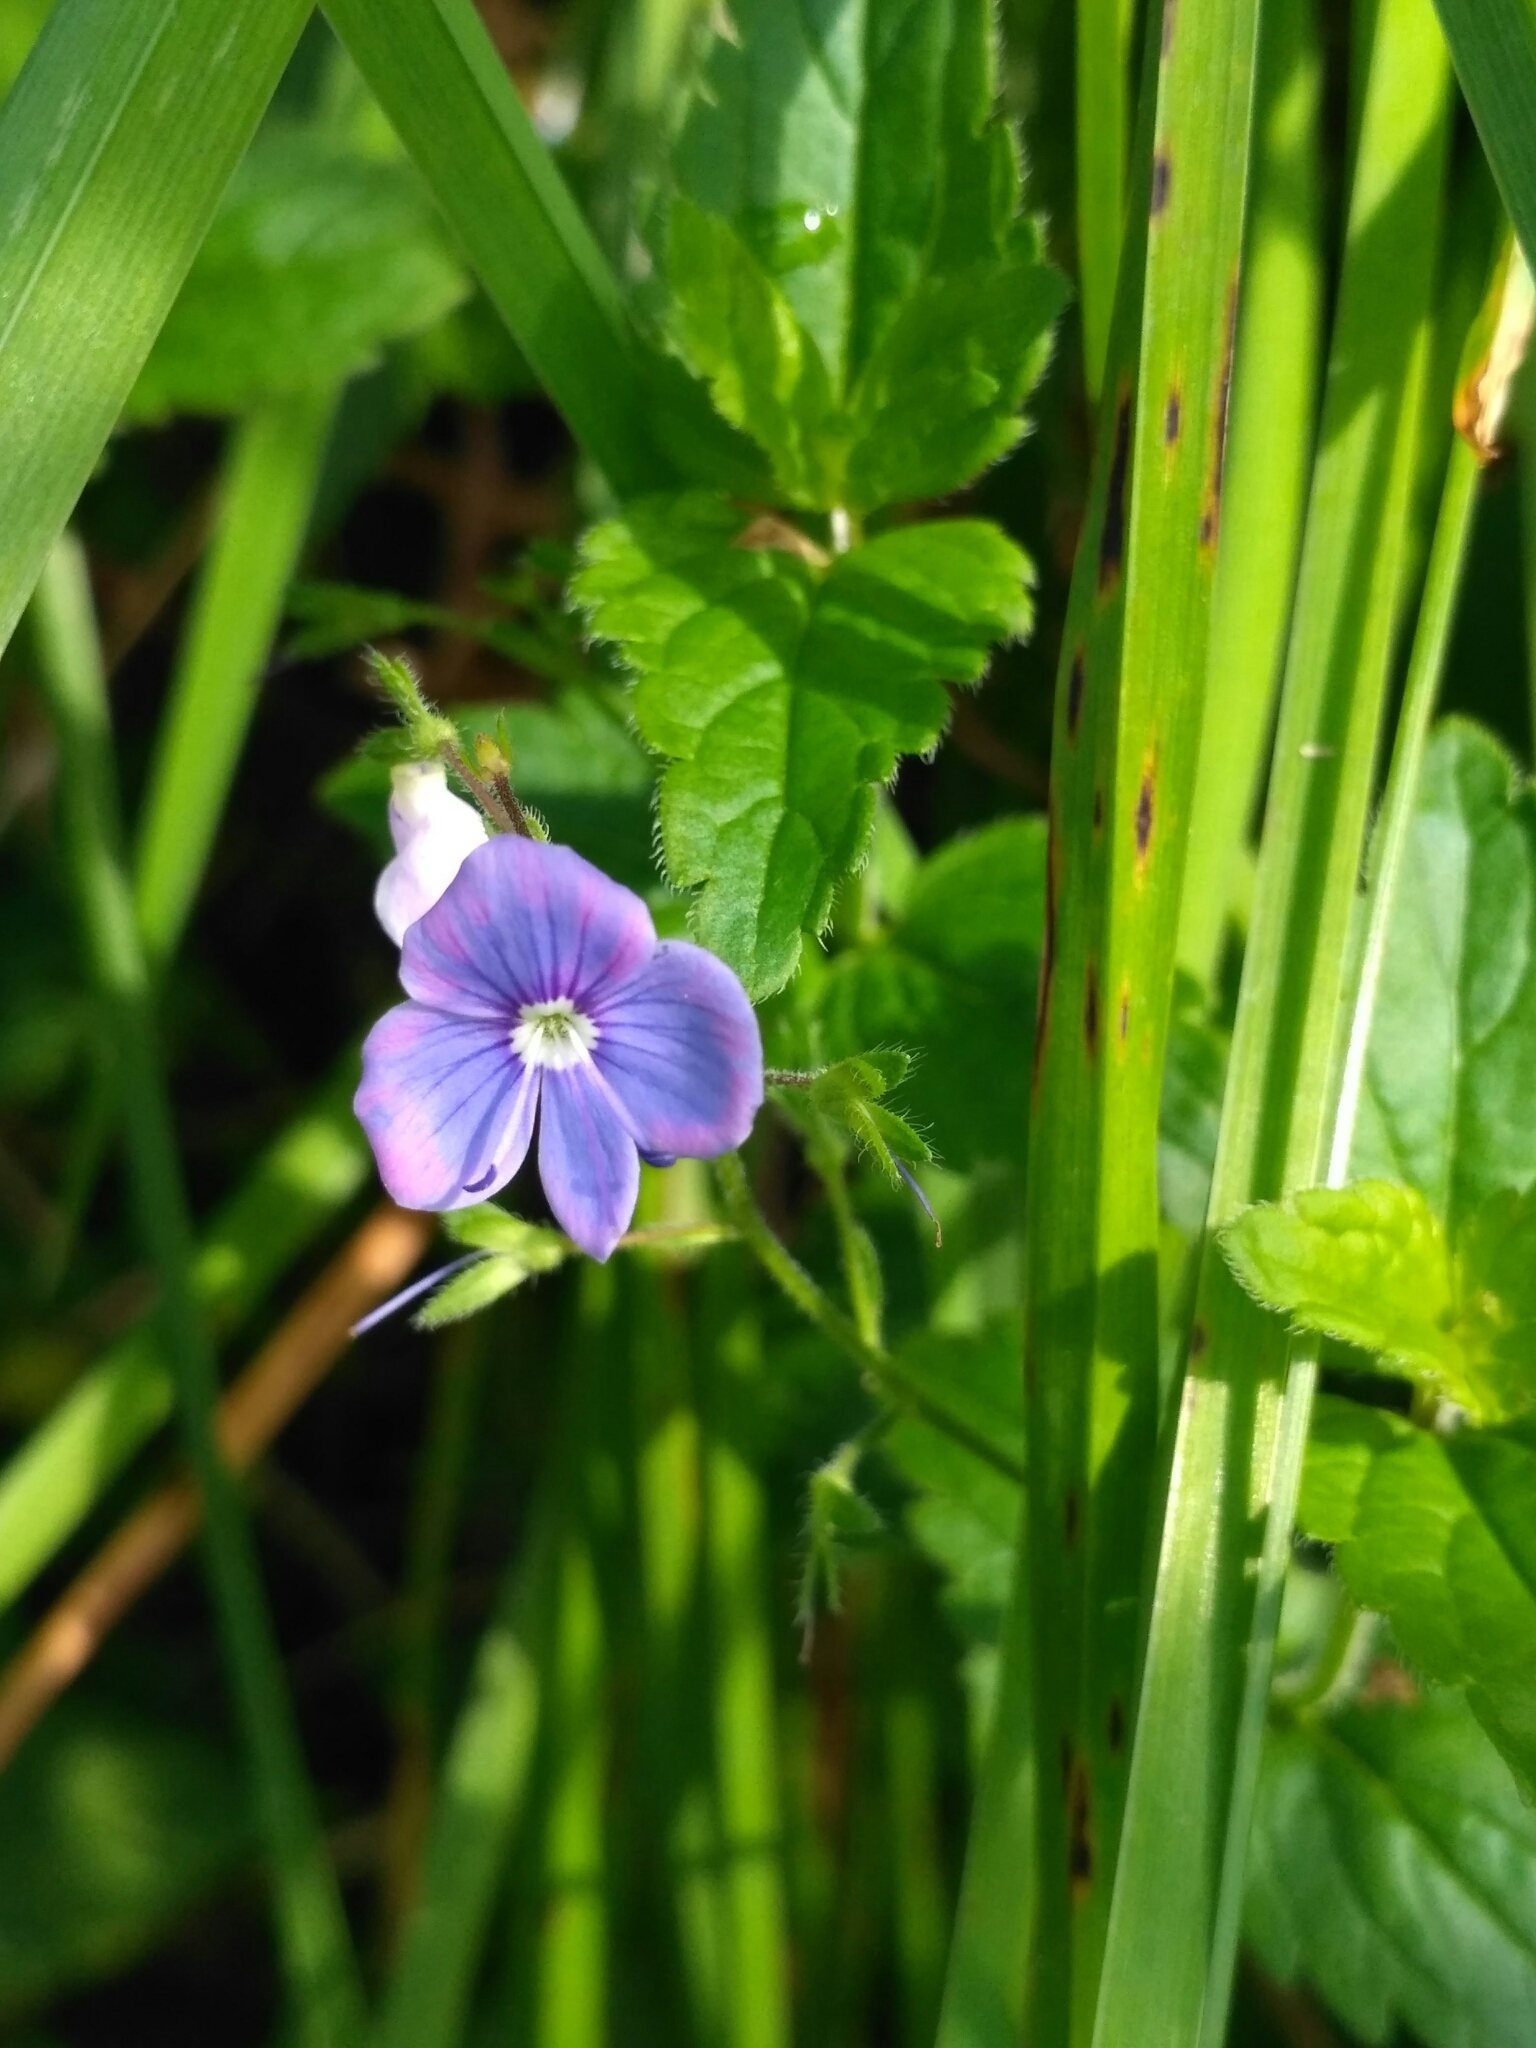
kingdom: Plantae
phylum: Tracheophyta
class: Magnoliopsida
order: Lamiales
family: Plantaginaceae
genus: Veronica
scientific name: Veronica chamaedrys
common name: Germander speedwell
